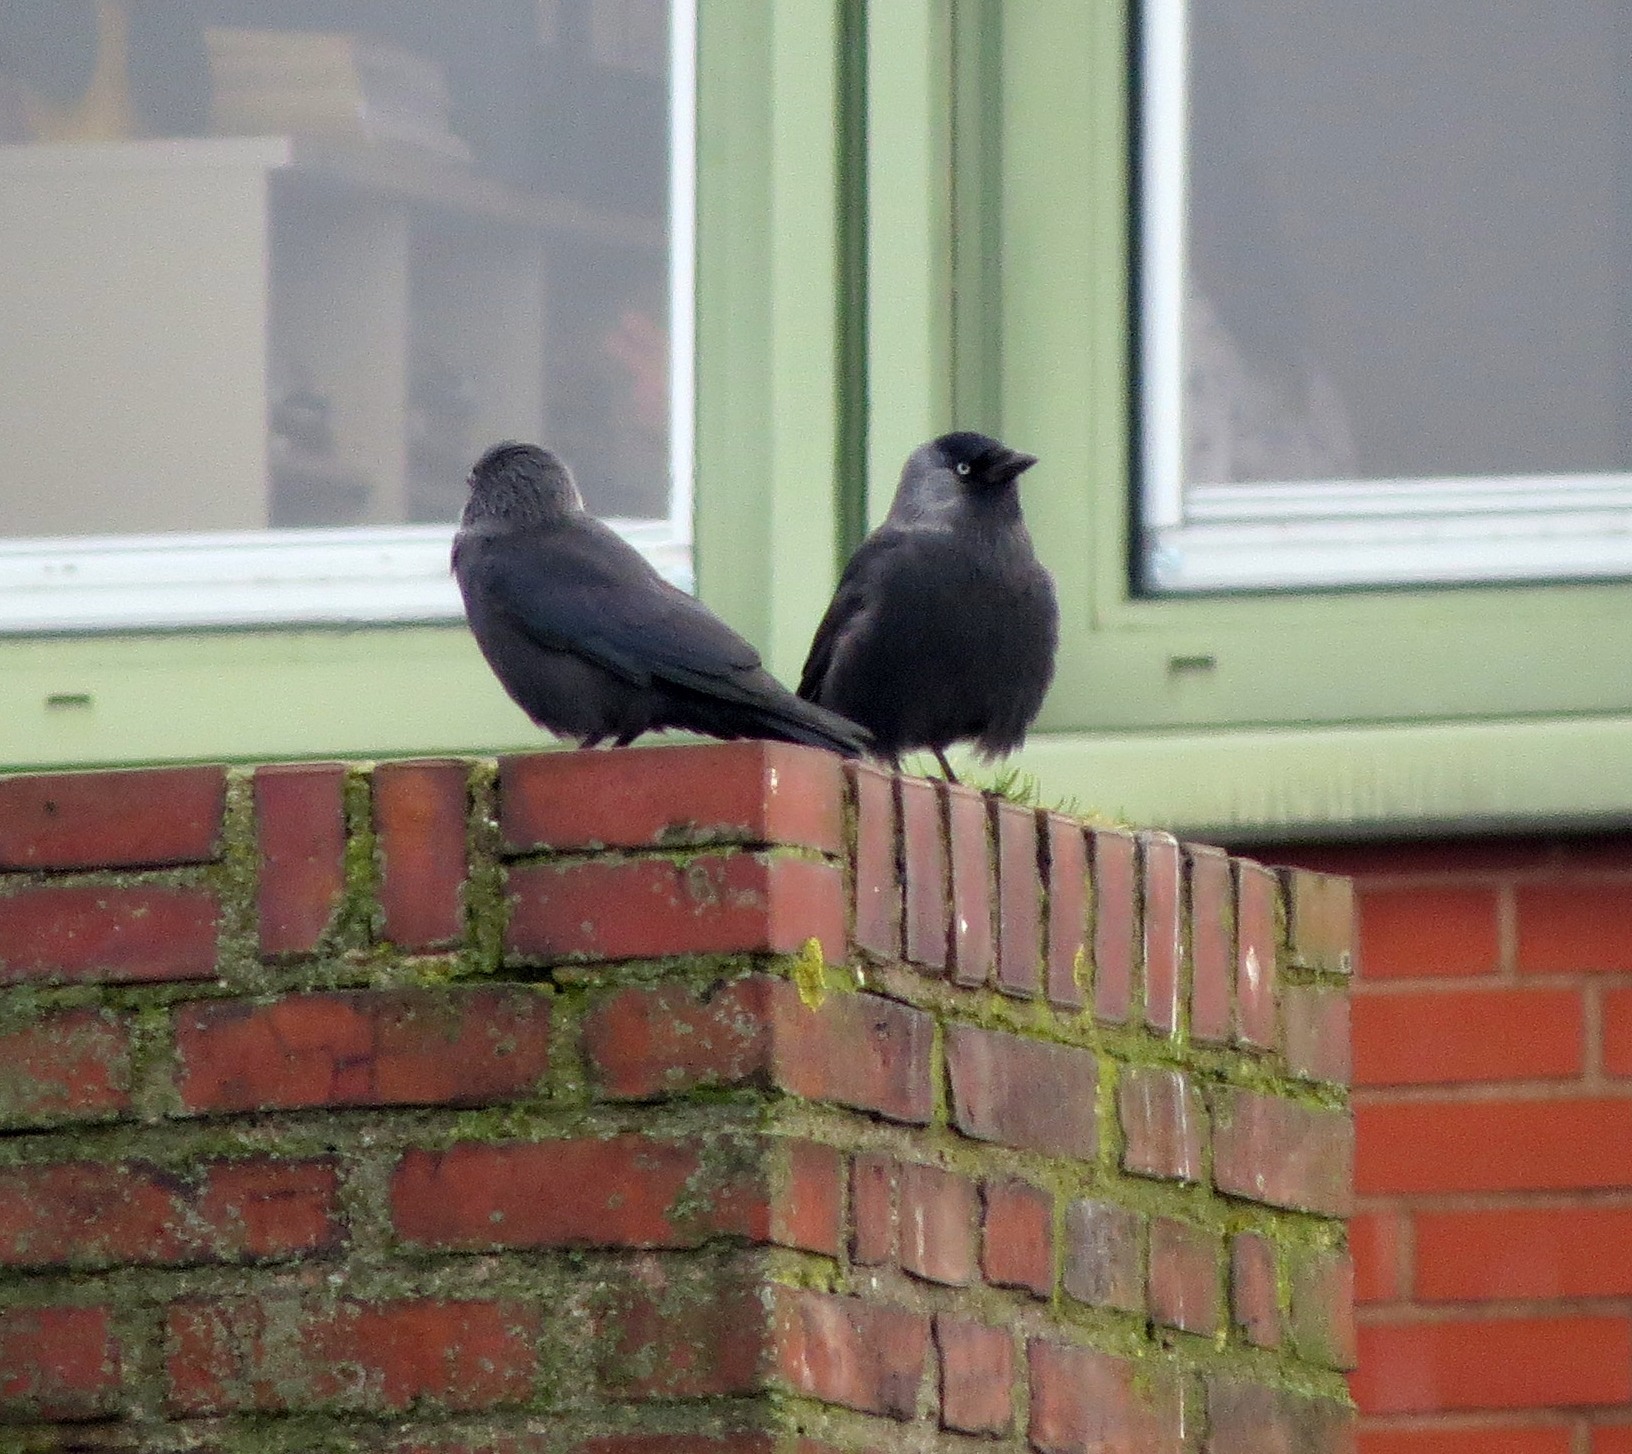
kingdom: Animalia
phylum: Chordata
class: Aves
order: Passeriformes
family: Corvidae
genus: Coloeus
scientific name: Coloeus monedula
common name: Western jackdaw
